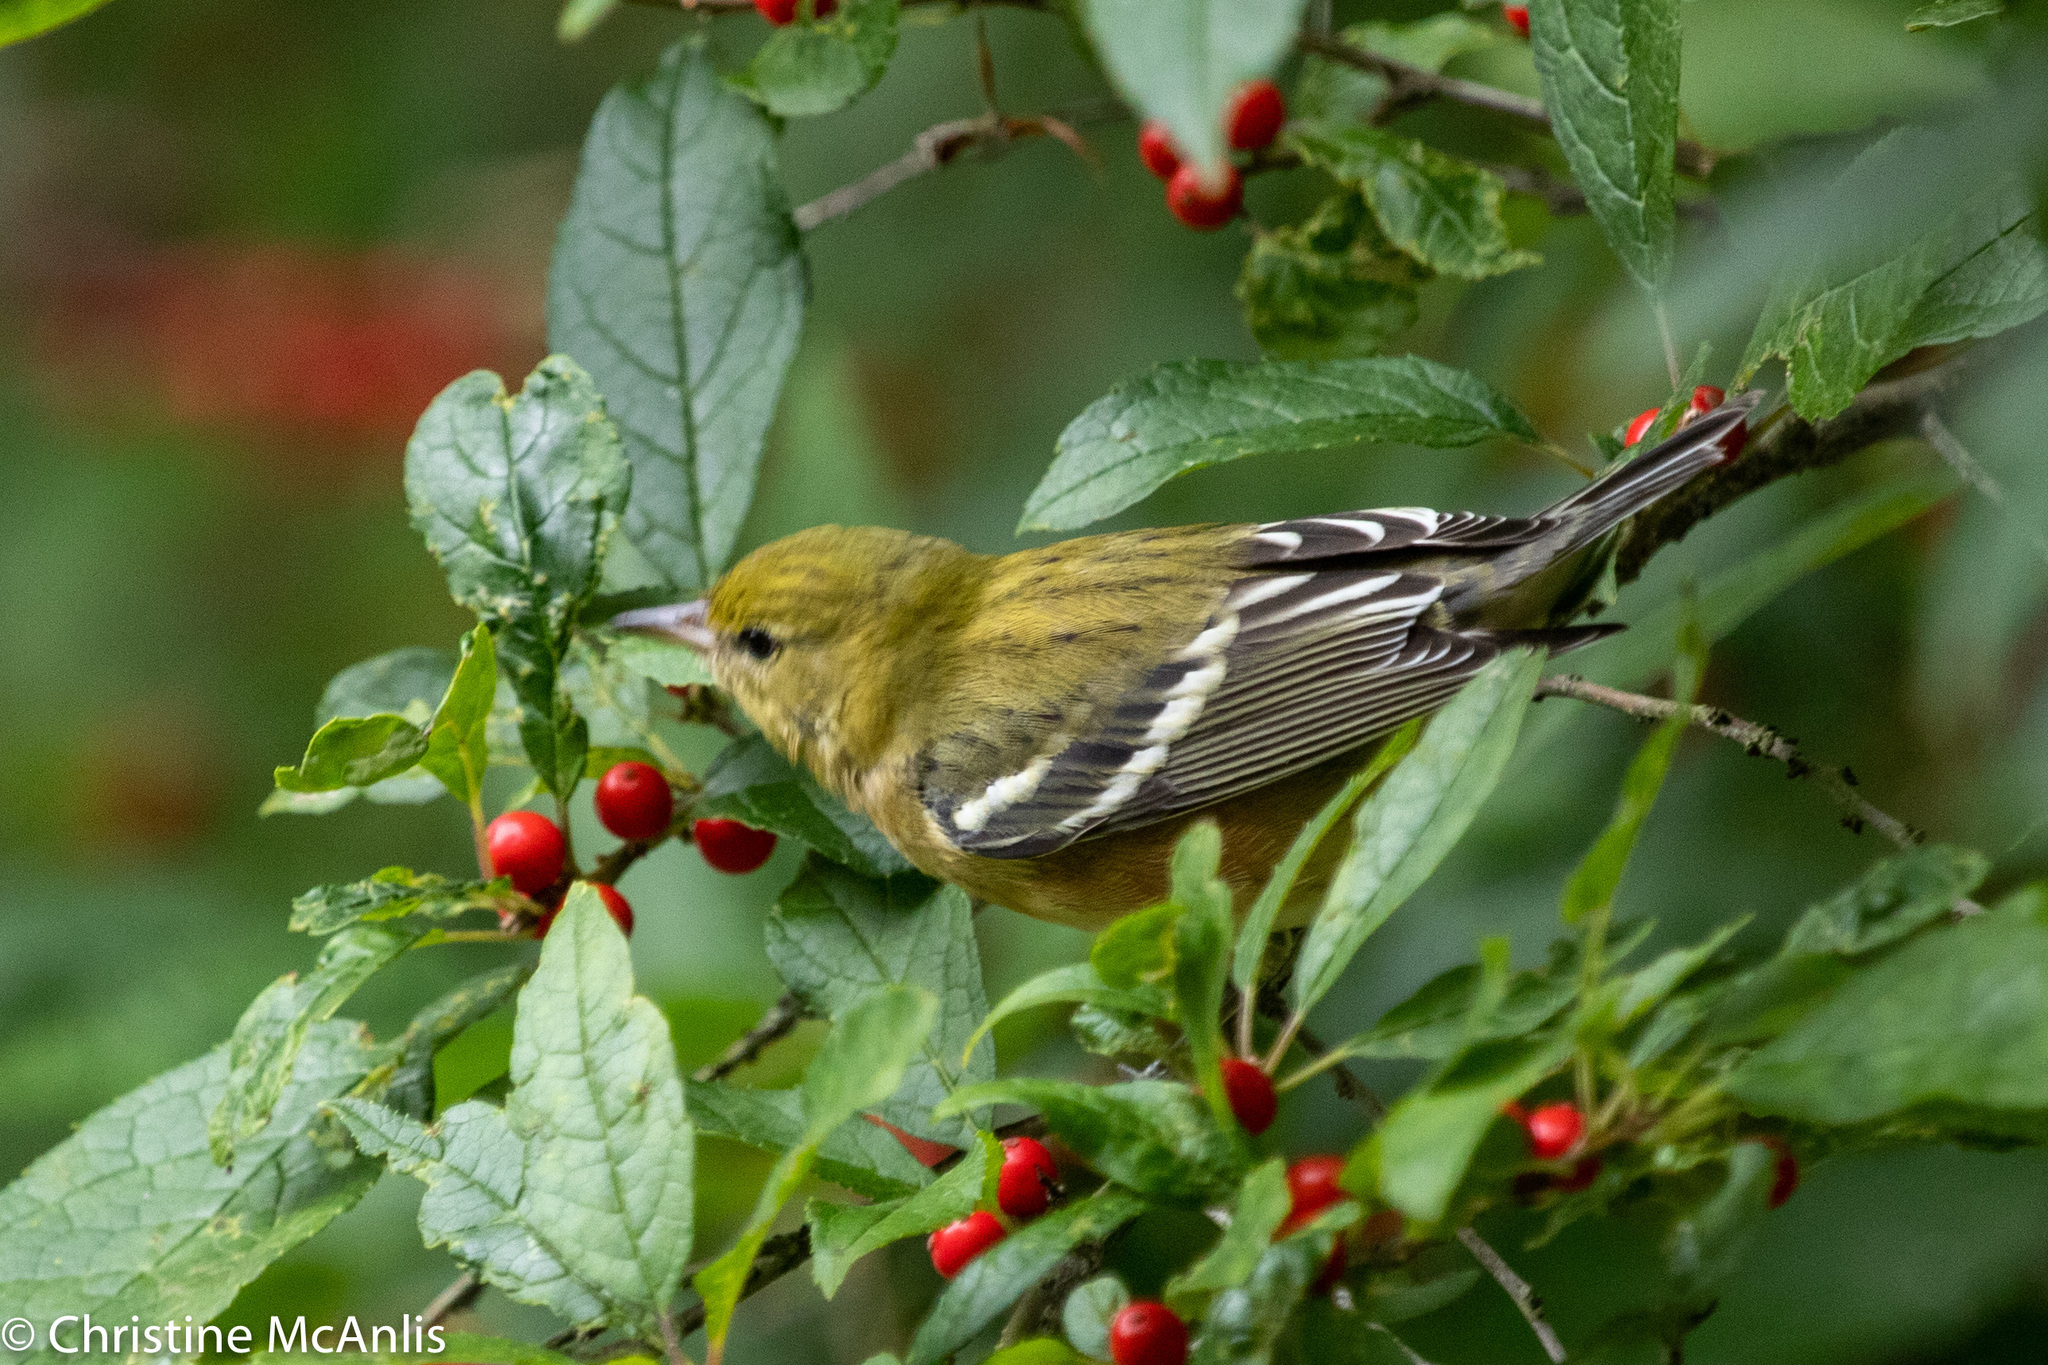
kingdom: Animalia
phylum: Chordata
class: Aves
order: Passeriformes
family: Parulidae
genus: Setophaga
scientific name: Setophaga castanea
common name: Bay-breasted warbler
